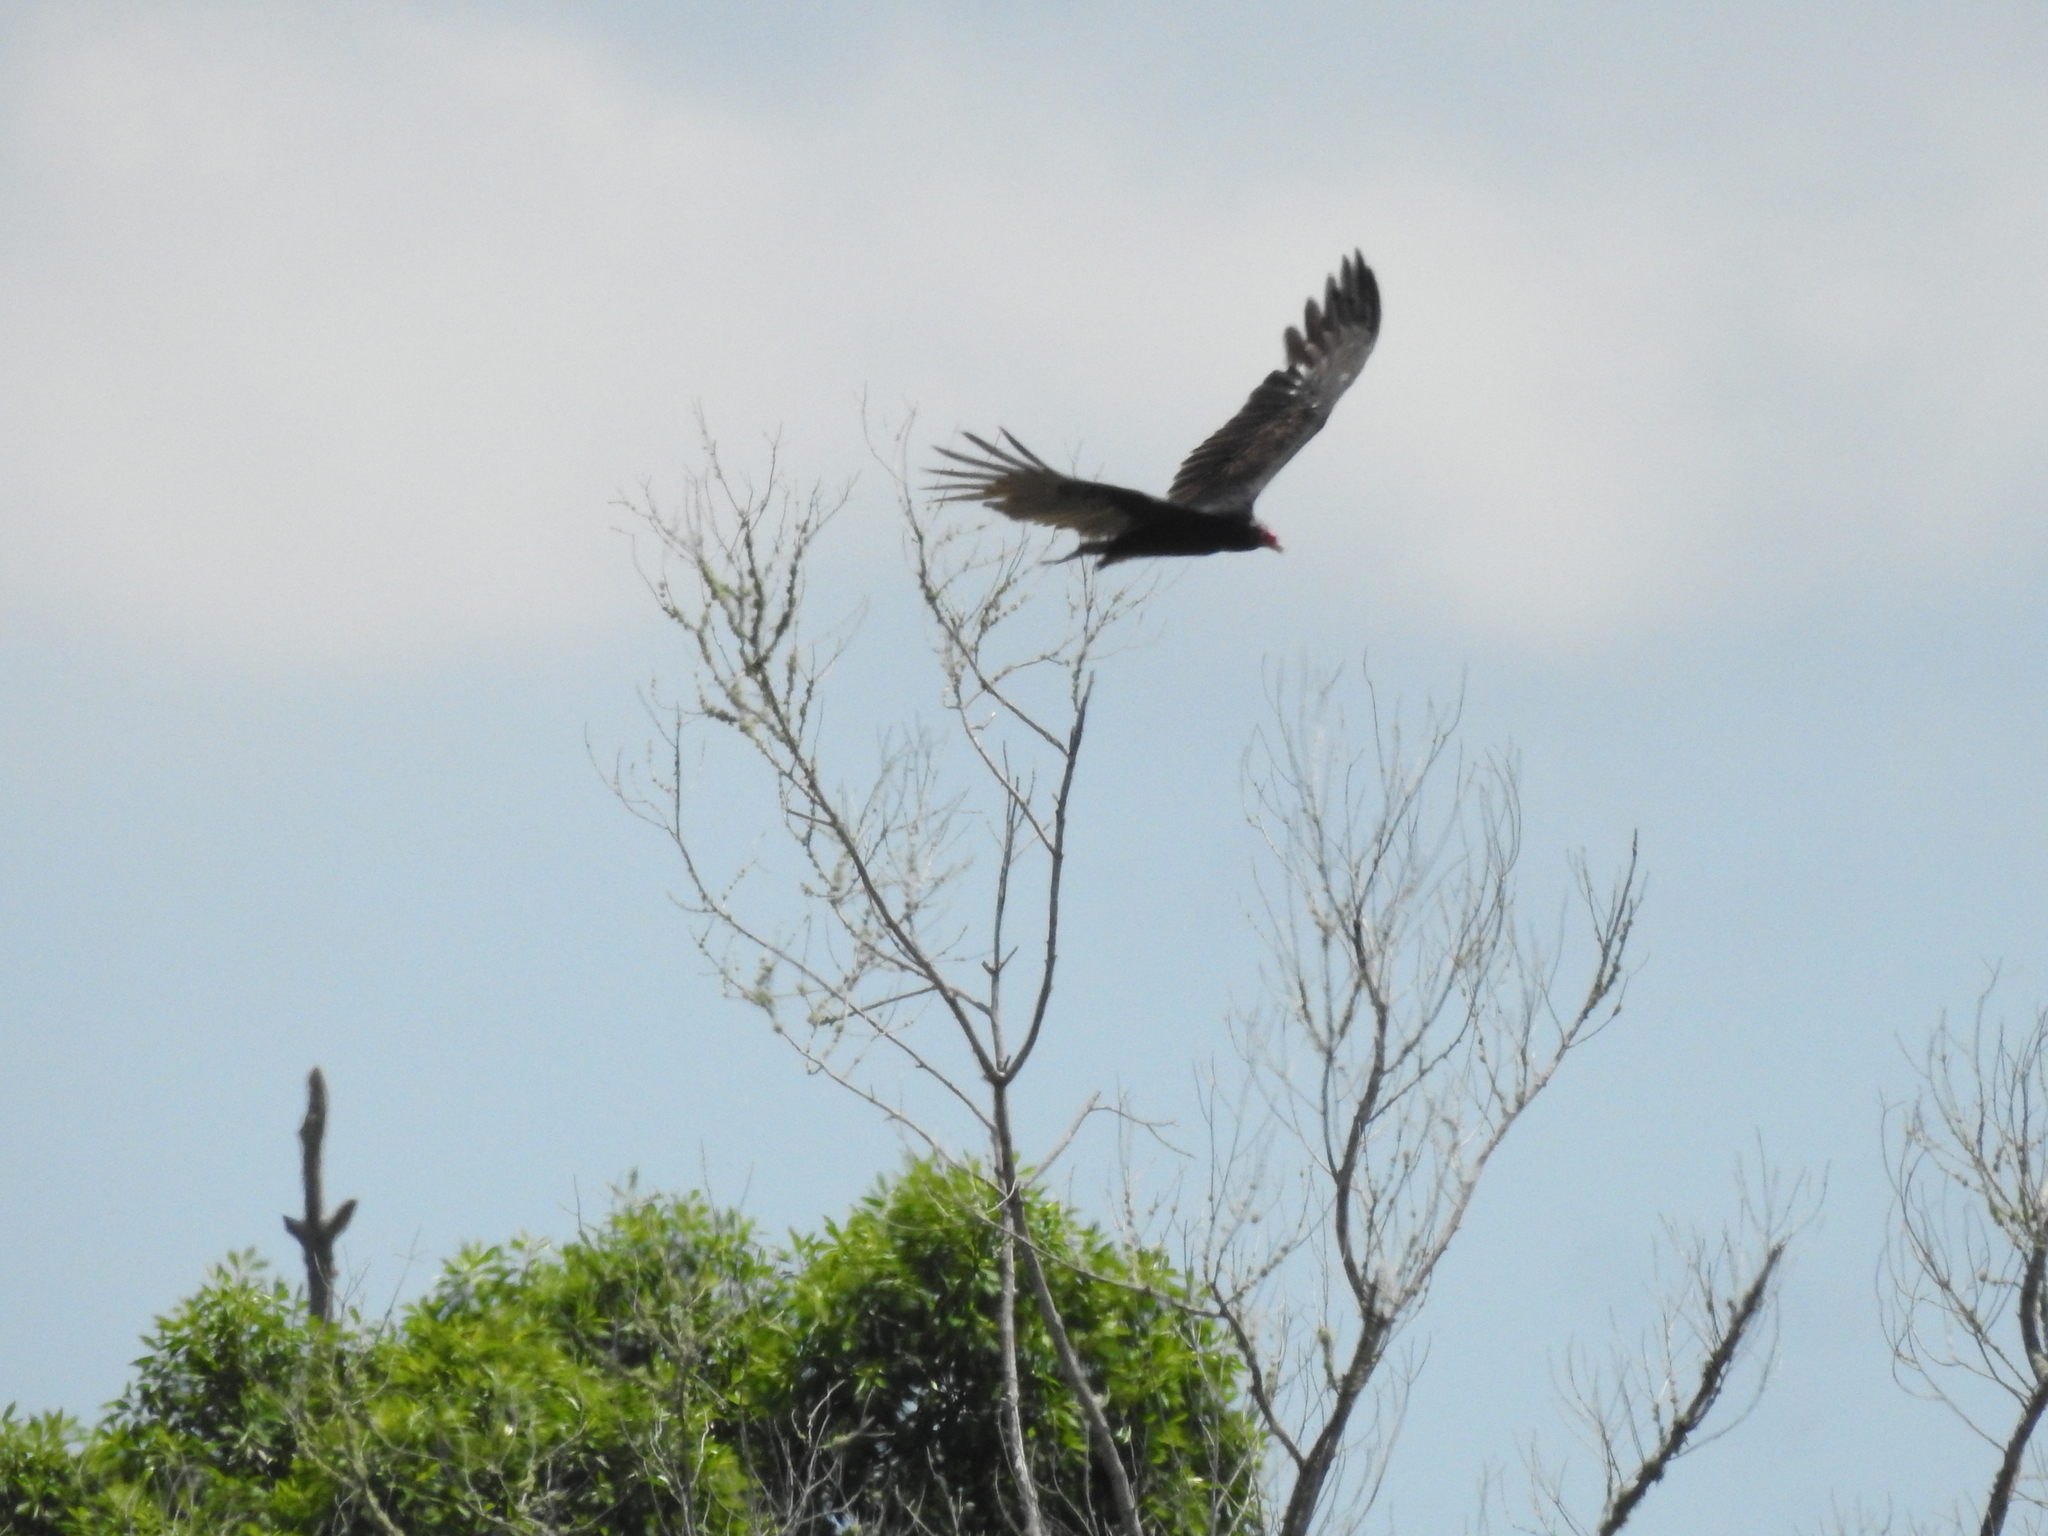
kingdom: Animalia
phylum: Chordata
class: Aves
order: Accipitriformes
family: Cathartidae
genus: Cathartes
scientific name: Cathartes aura
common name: Turkey vulture
